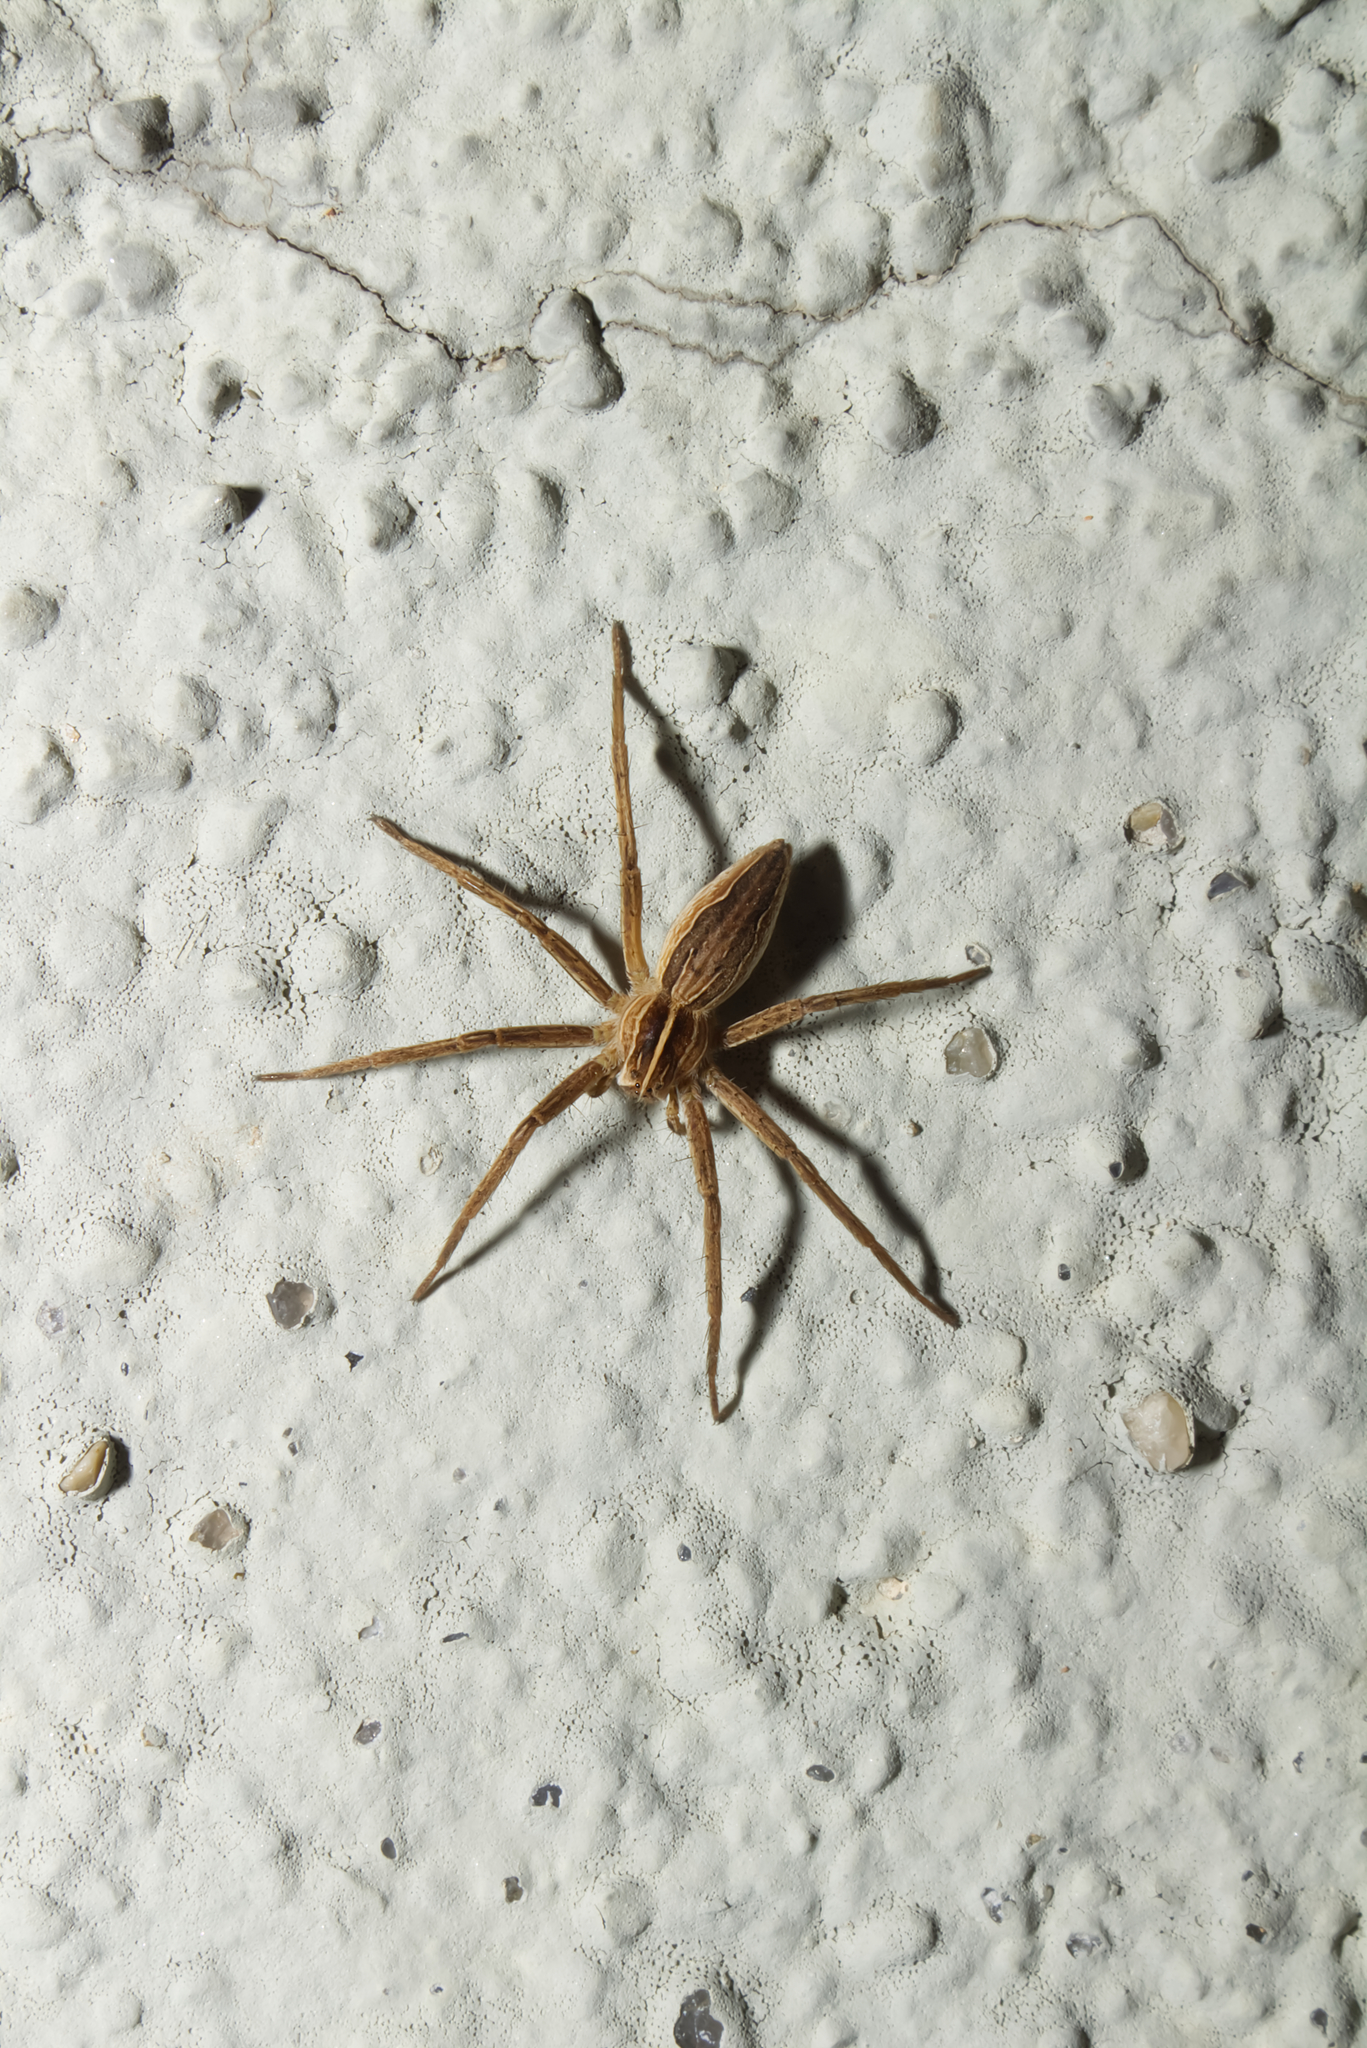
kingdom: Animalia
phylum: Arthropoda
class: Arachnida
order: Araneae
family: Pisauridae
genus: Pisaura
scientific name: Pisaura mirabilis
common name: Tent spider
